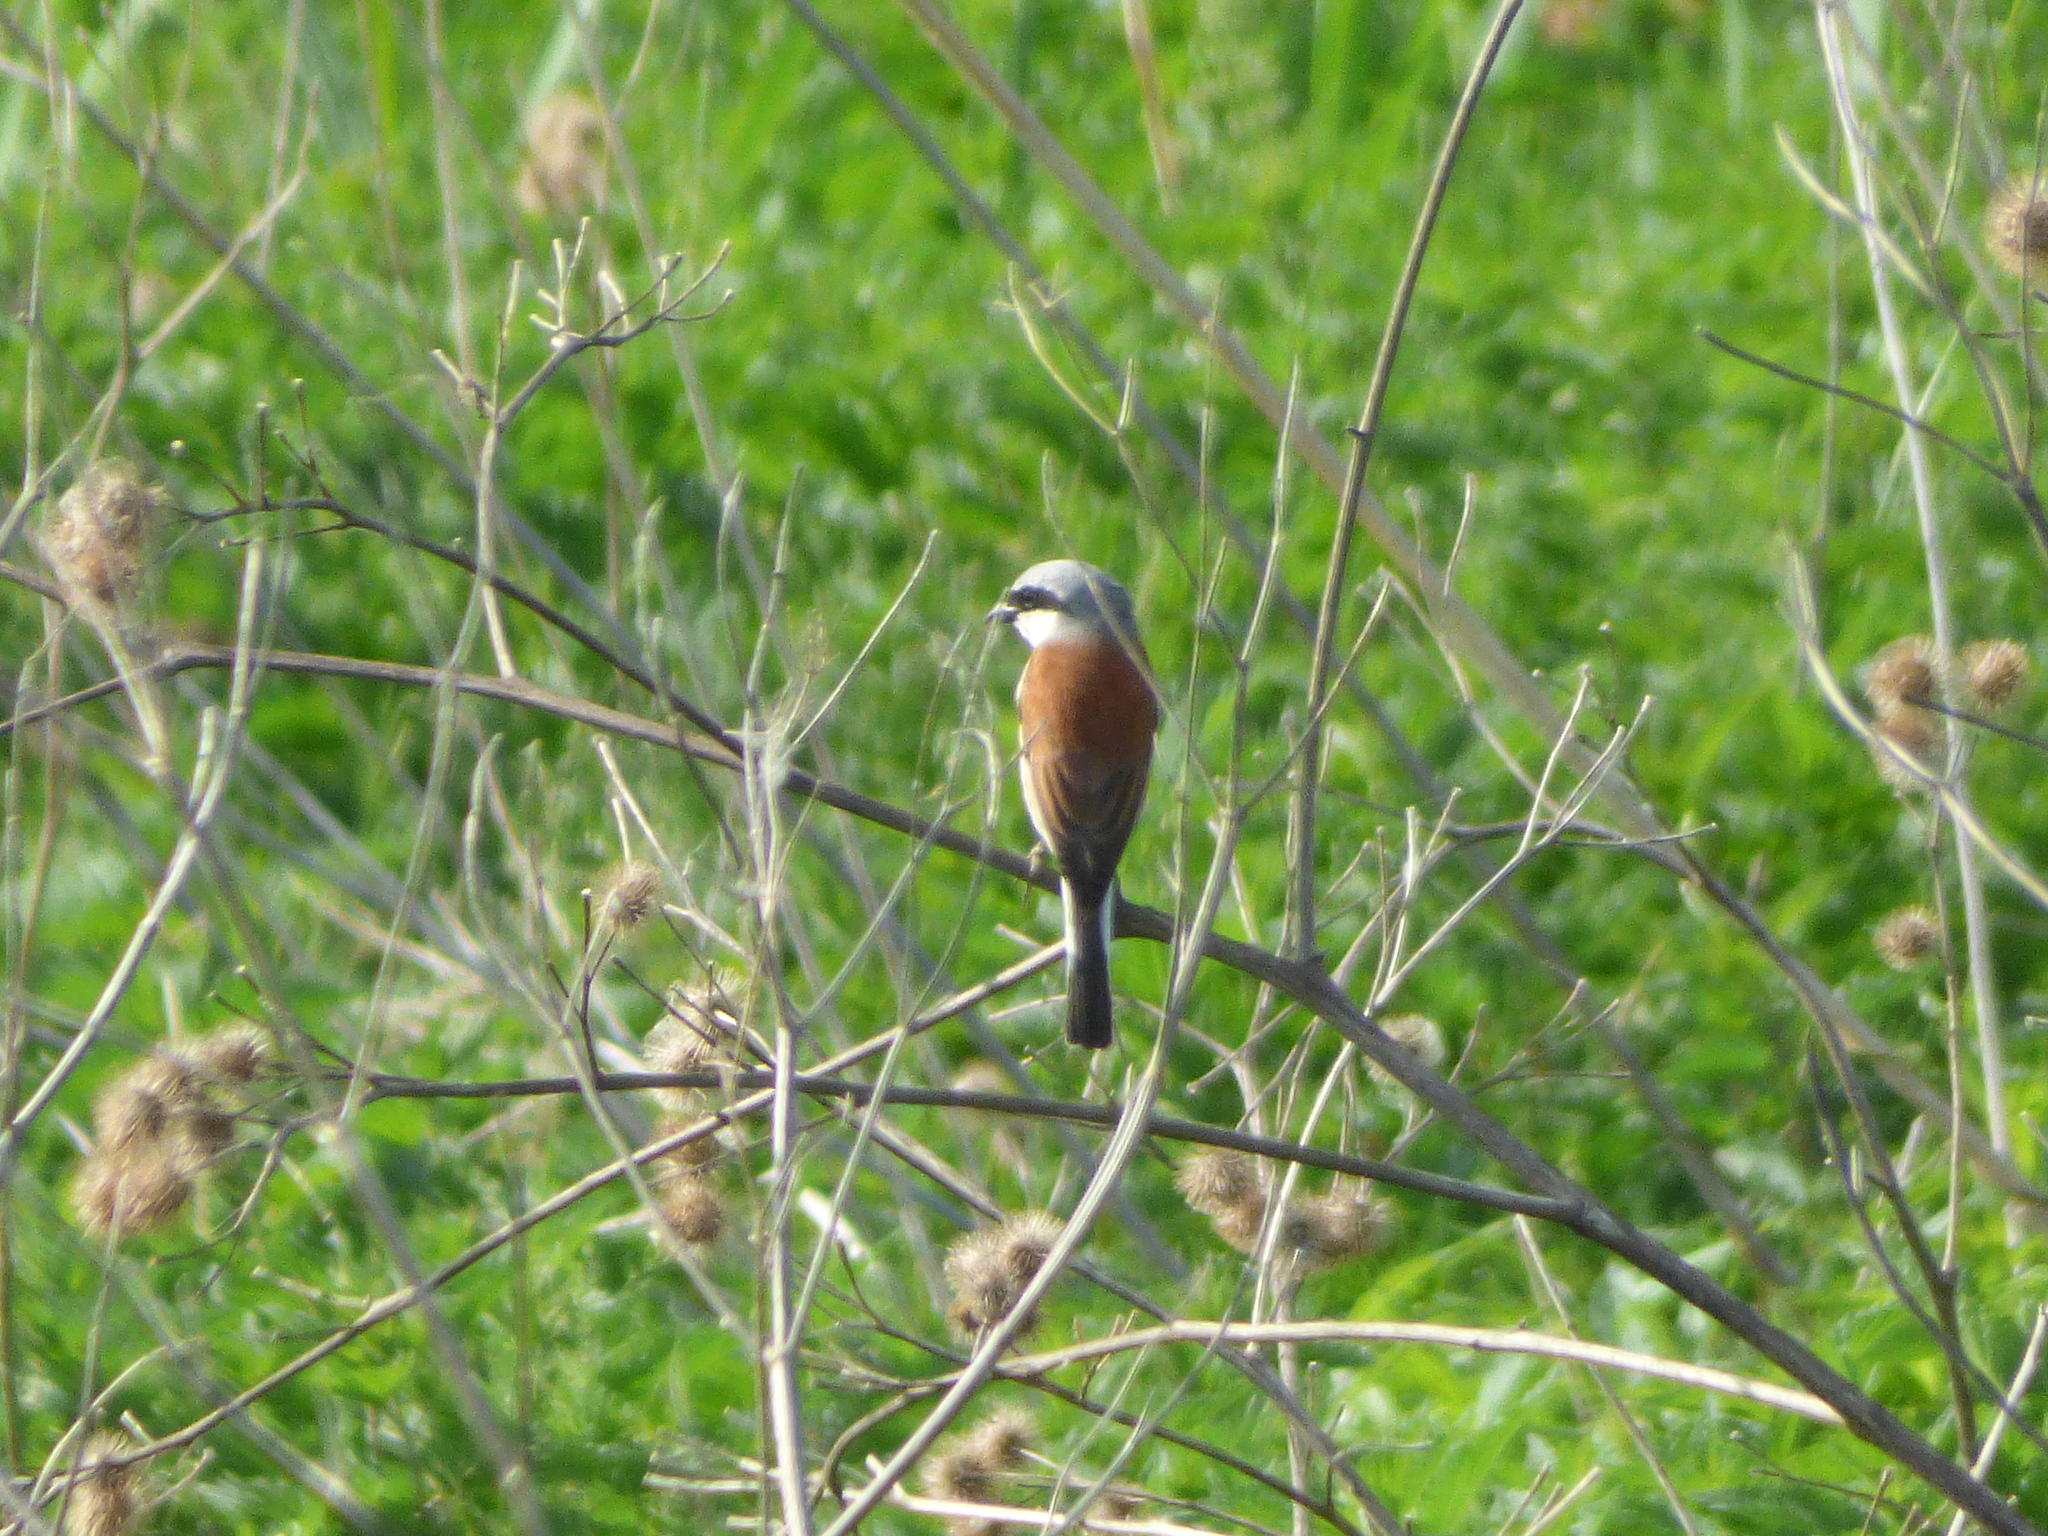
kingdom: Animalia
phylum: Chordata
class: Aves
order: Passeriformes
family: Laniidae
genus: Lanius
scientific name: Lanius collurio
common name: Red-backed shrike
